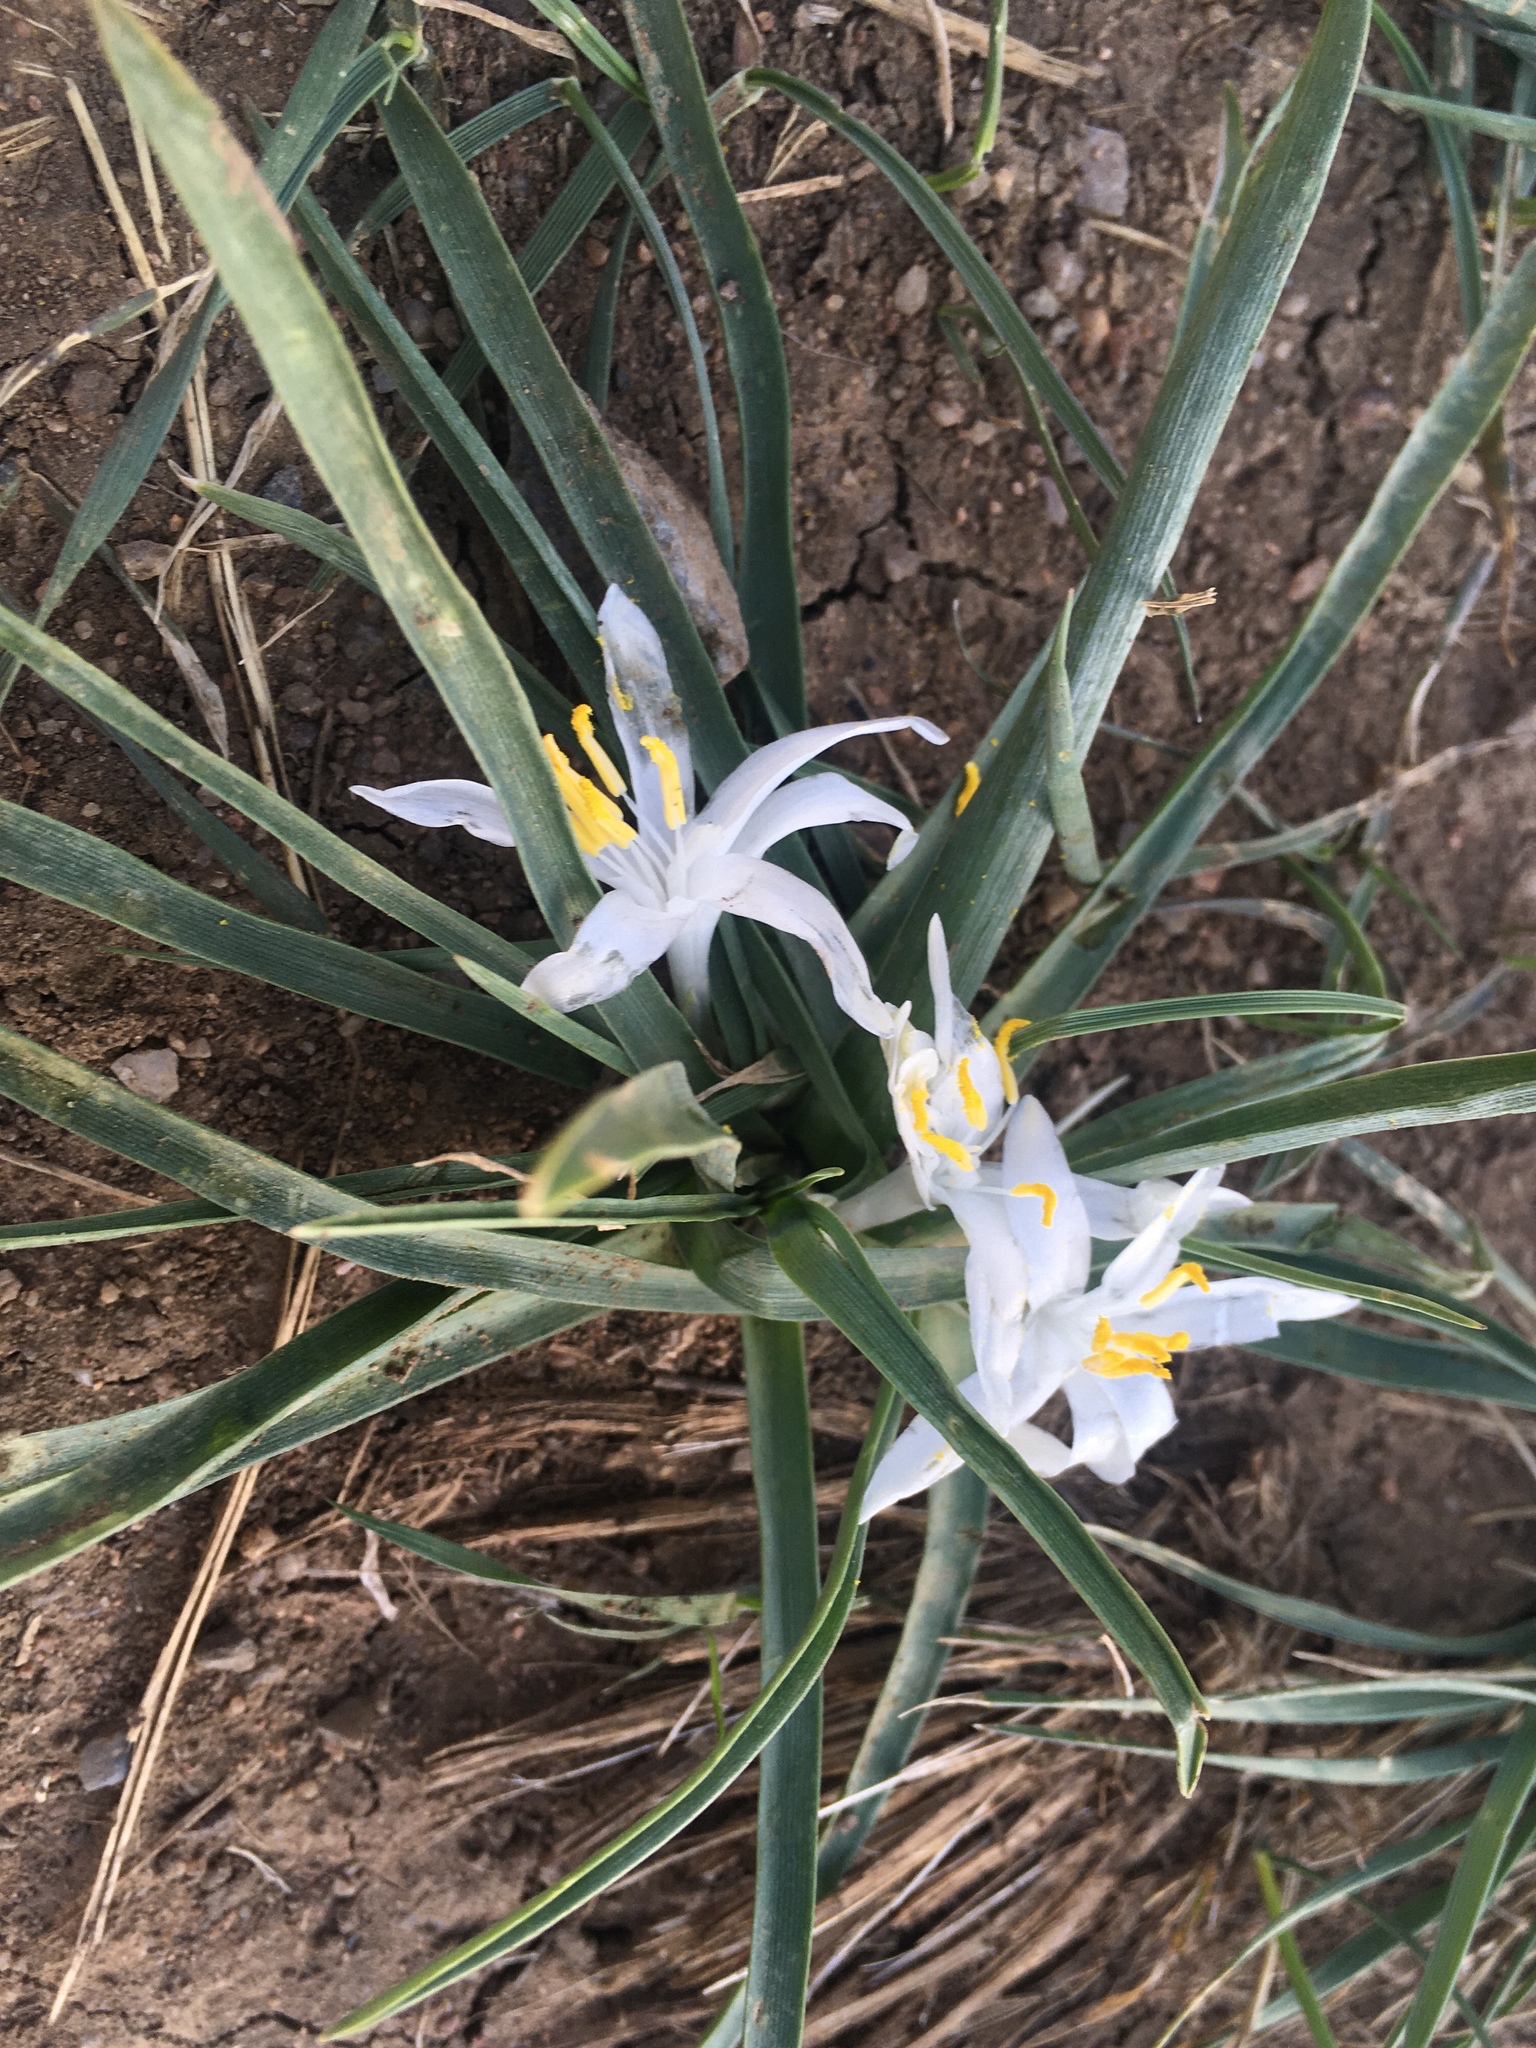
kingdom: Plantae
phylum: Tracheophyta
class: Liliopsida
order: Asparagales
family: Asparagaceae
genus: Leucocrinum
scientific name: Leucocrinum montanum
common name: Mountain-lily
